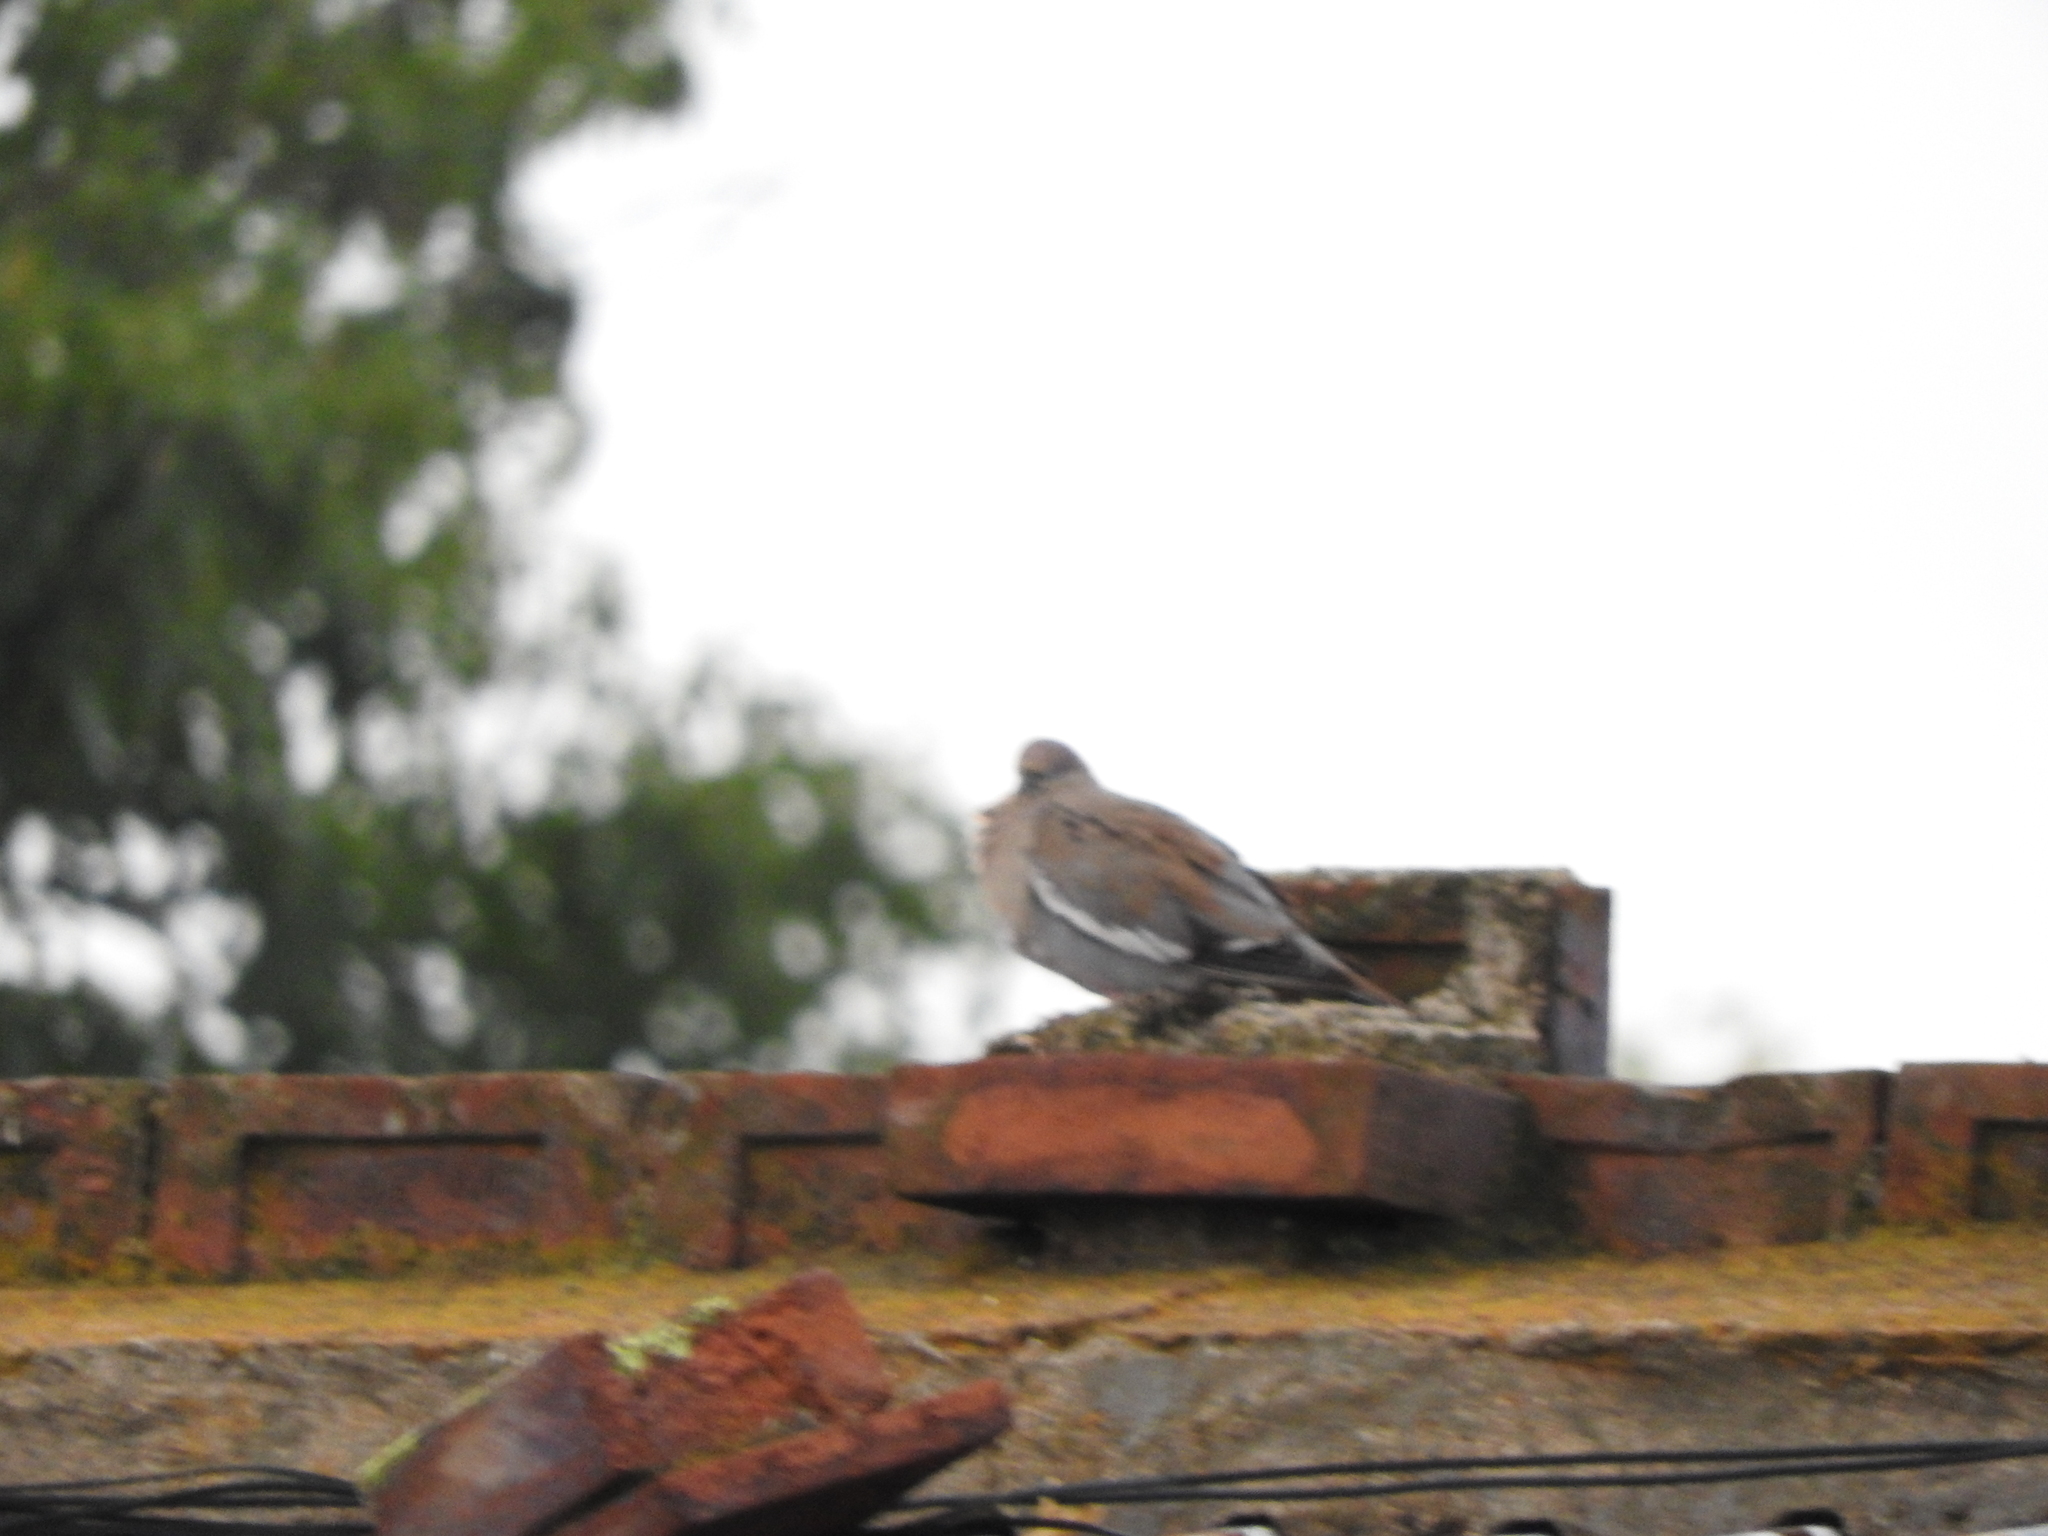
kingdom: Animalia
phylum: Chordata
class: Aves
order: Columbiformes
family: Columbidae
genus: Zenaida
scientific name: Zenaida asiatica
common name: White-winged dove
